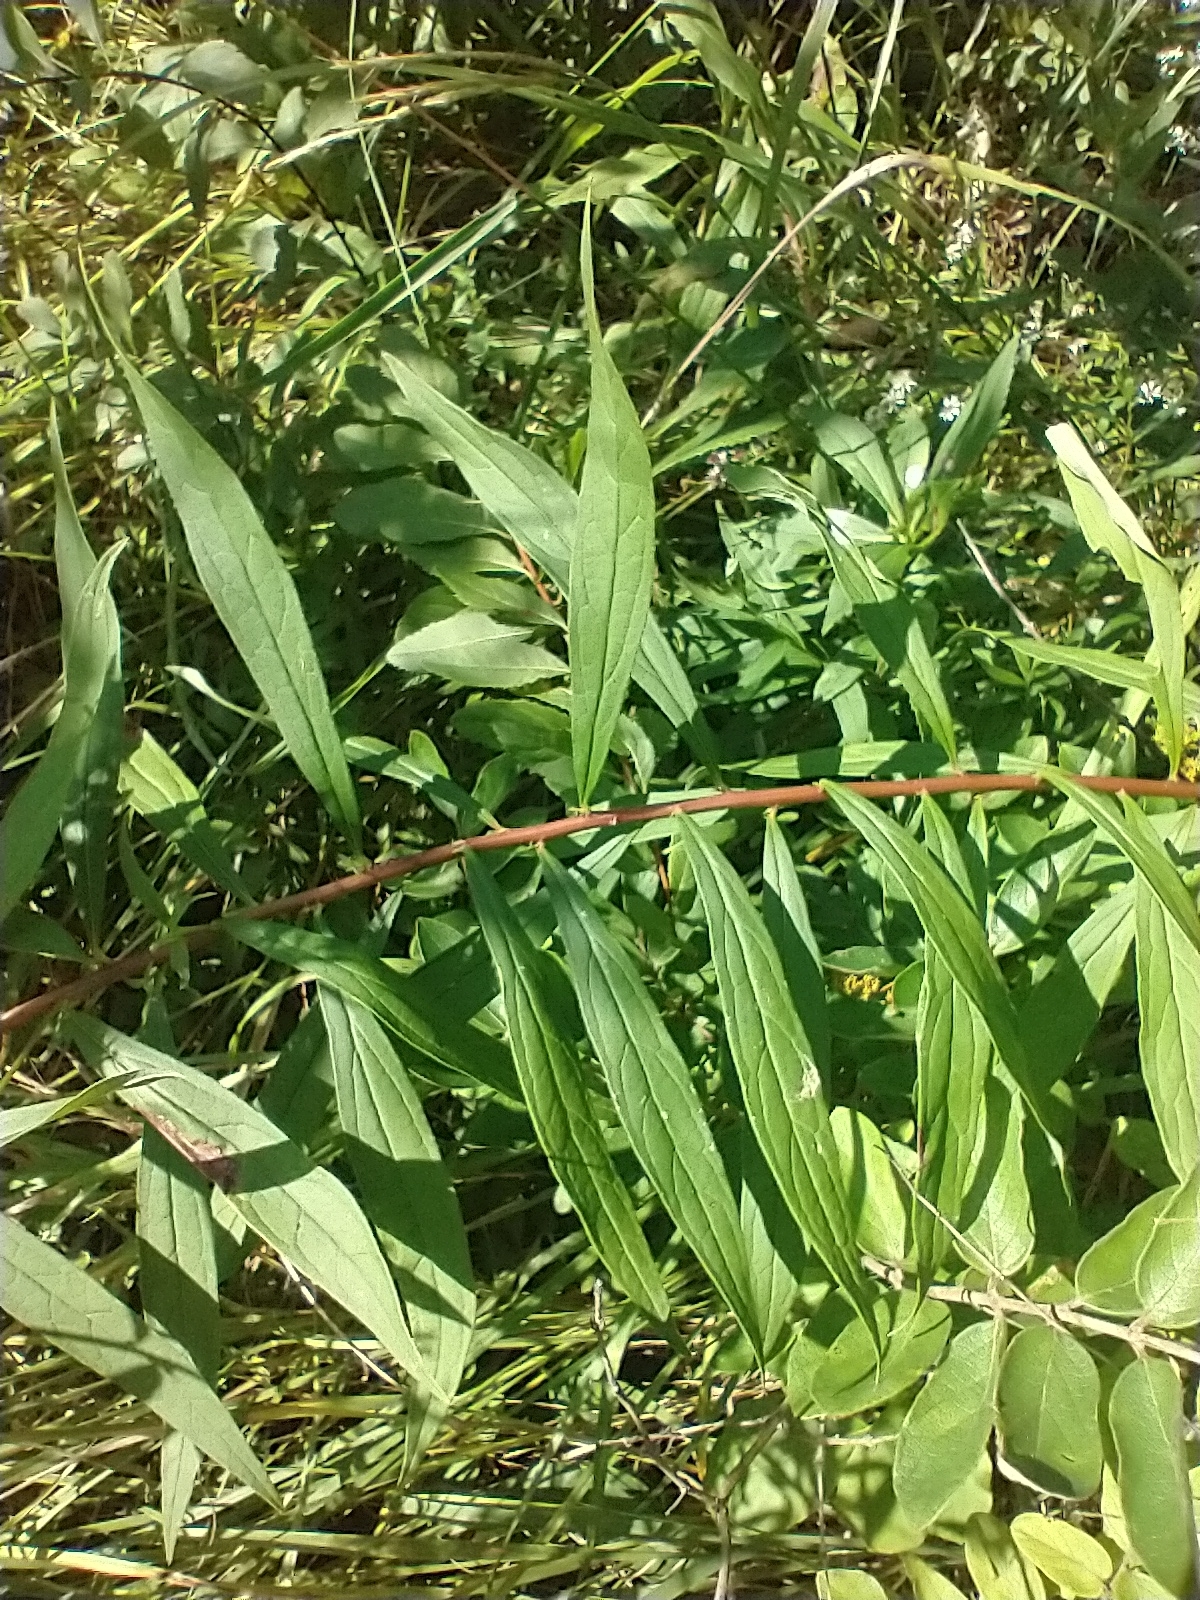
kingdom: Plantae
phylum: Tracheophyta
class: Magnoliopsida
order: Asterales
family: Asteraceae
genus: Doellingeria
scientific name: Doellingeria umbellata
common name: Flat-top white aster
